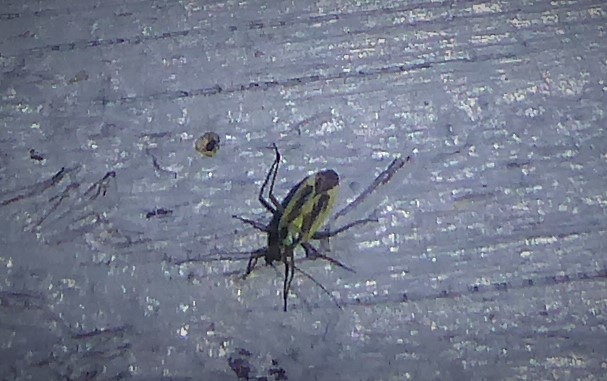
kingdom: Animalia
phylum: Arthropoda
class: Insecta
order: Hemiptera
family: Miridae
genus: Stenotus
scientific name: Stenotus binotatus
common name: Plant bug
